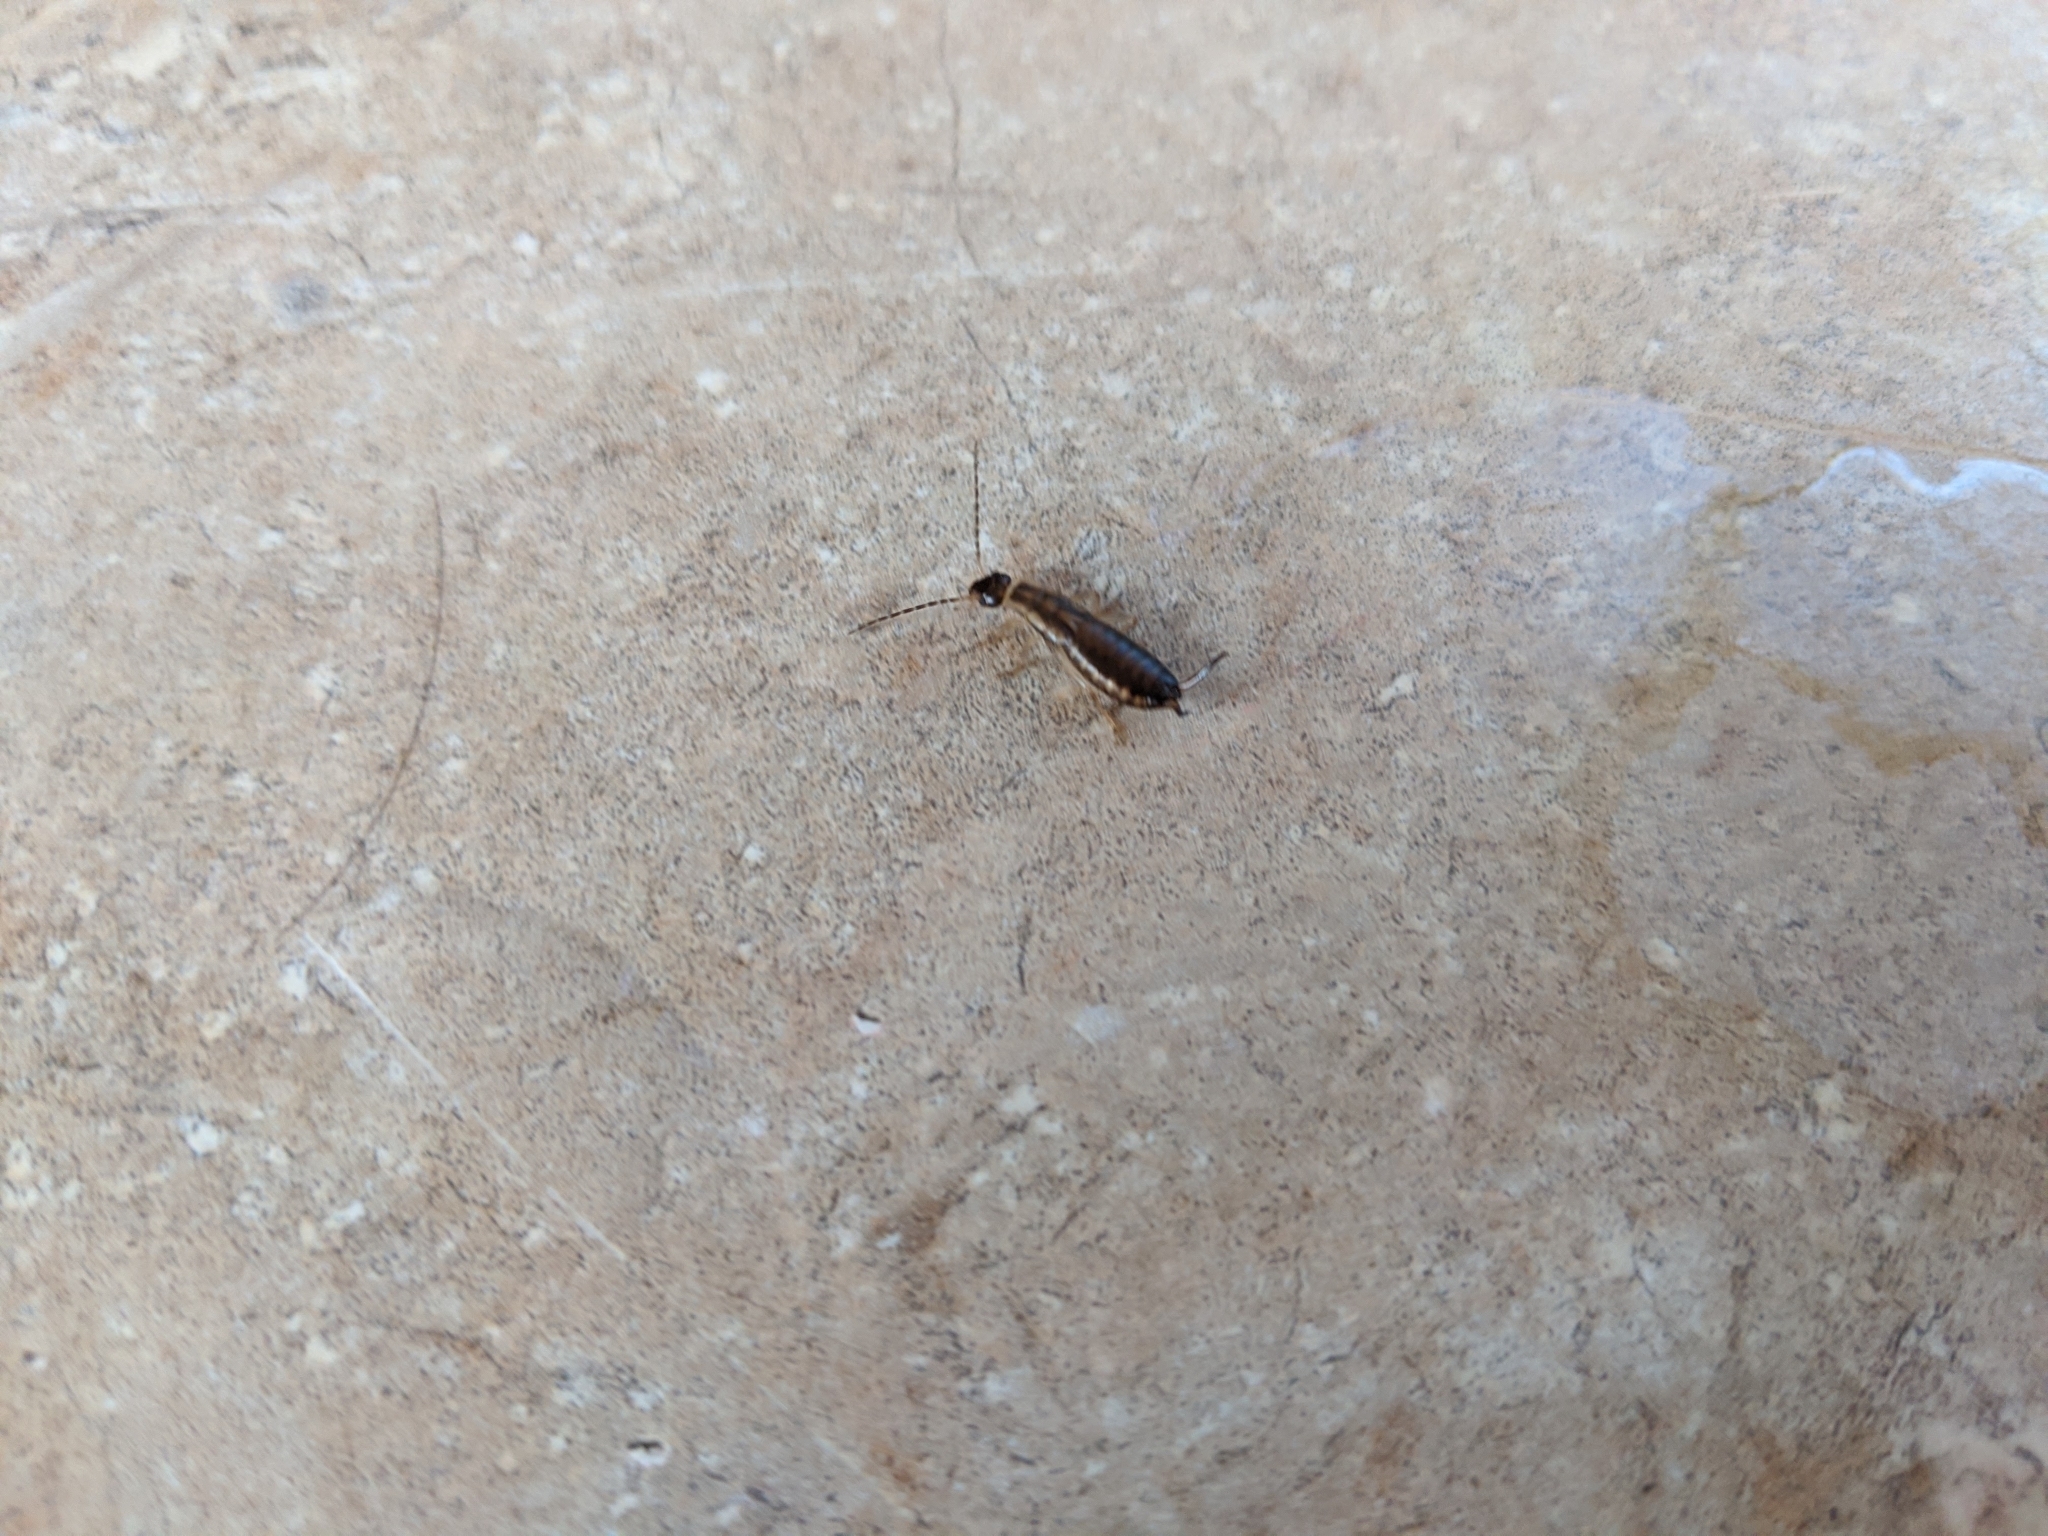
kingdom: Animalia
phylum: Arthropoda
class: Insecta
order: Dermaptera
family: Forficulidae
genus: Forficula
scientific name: Forficula
